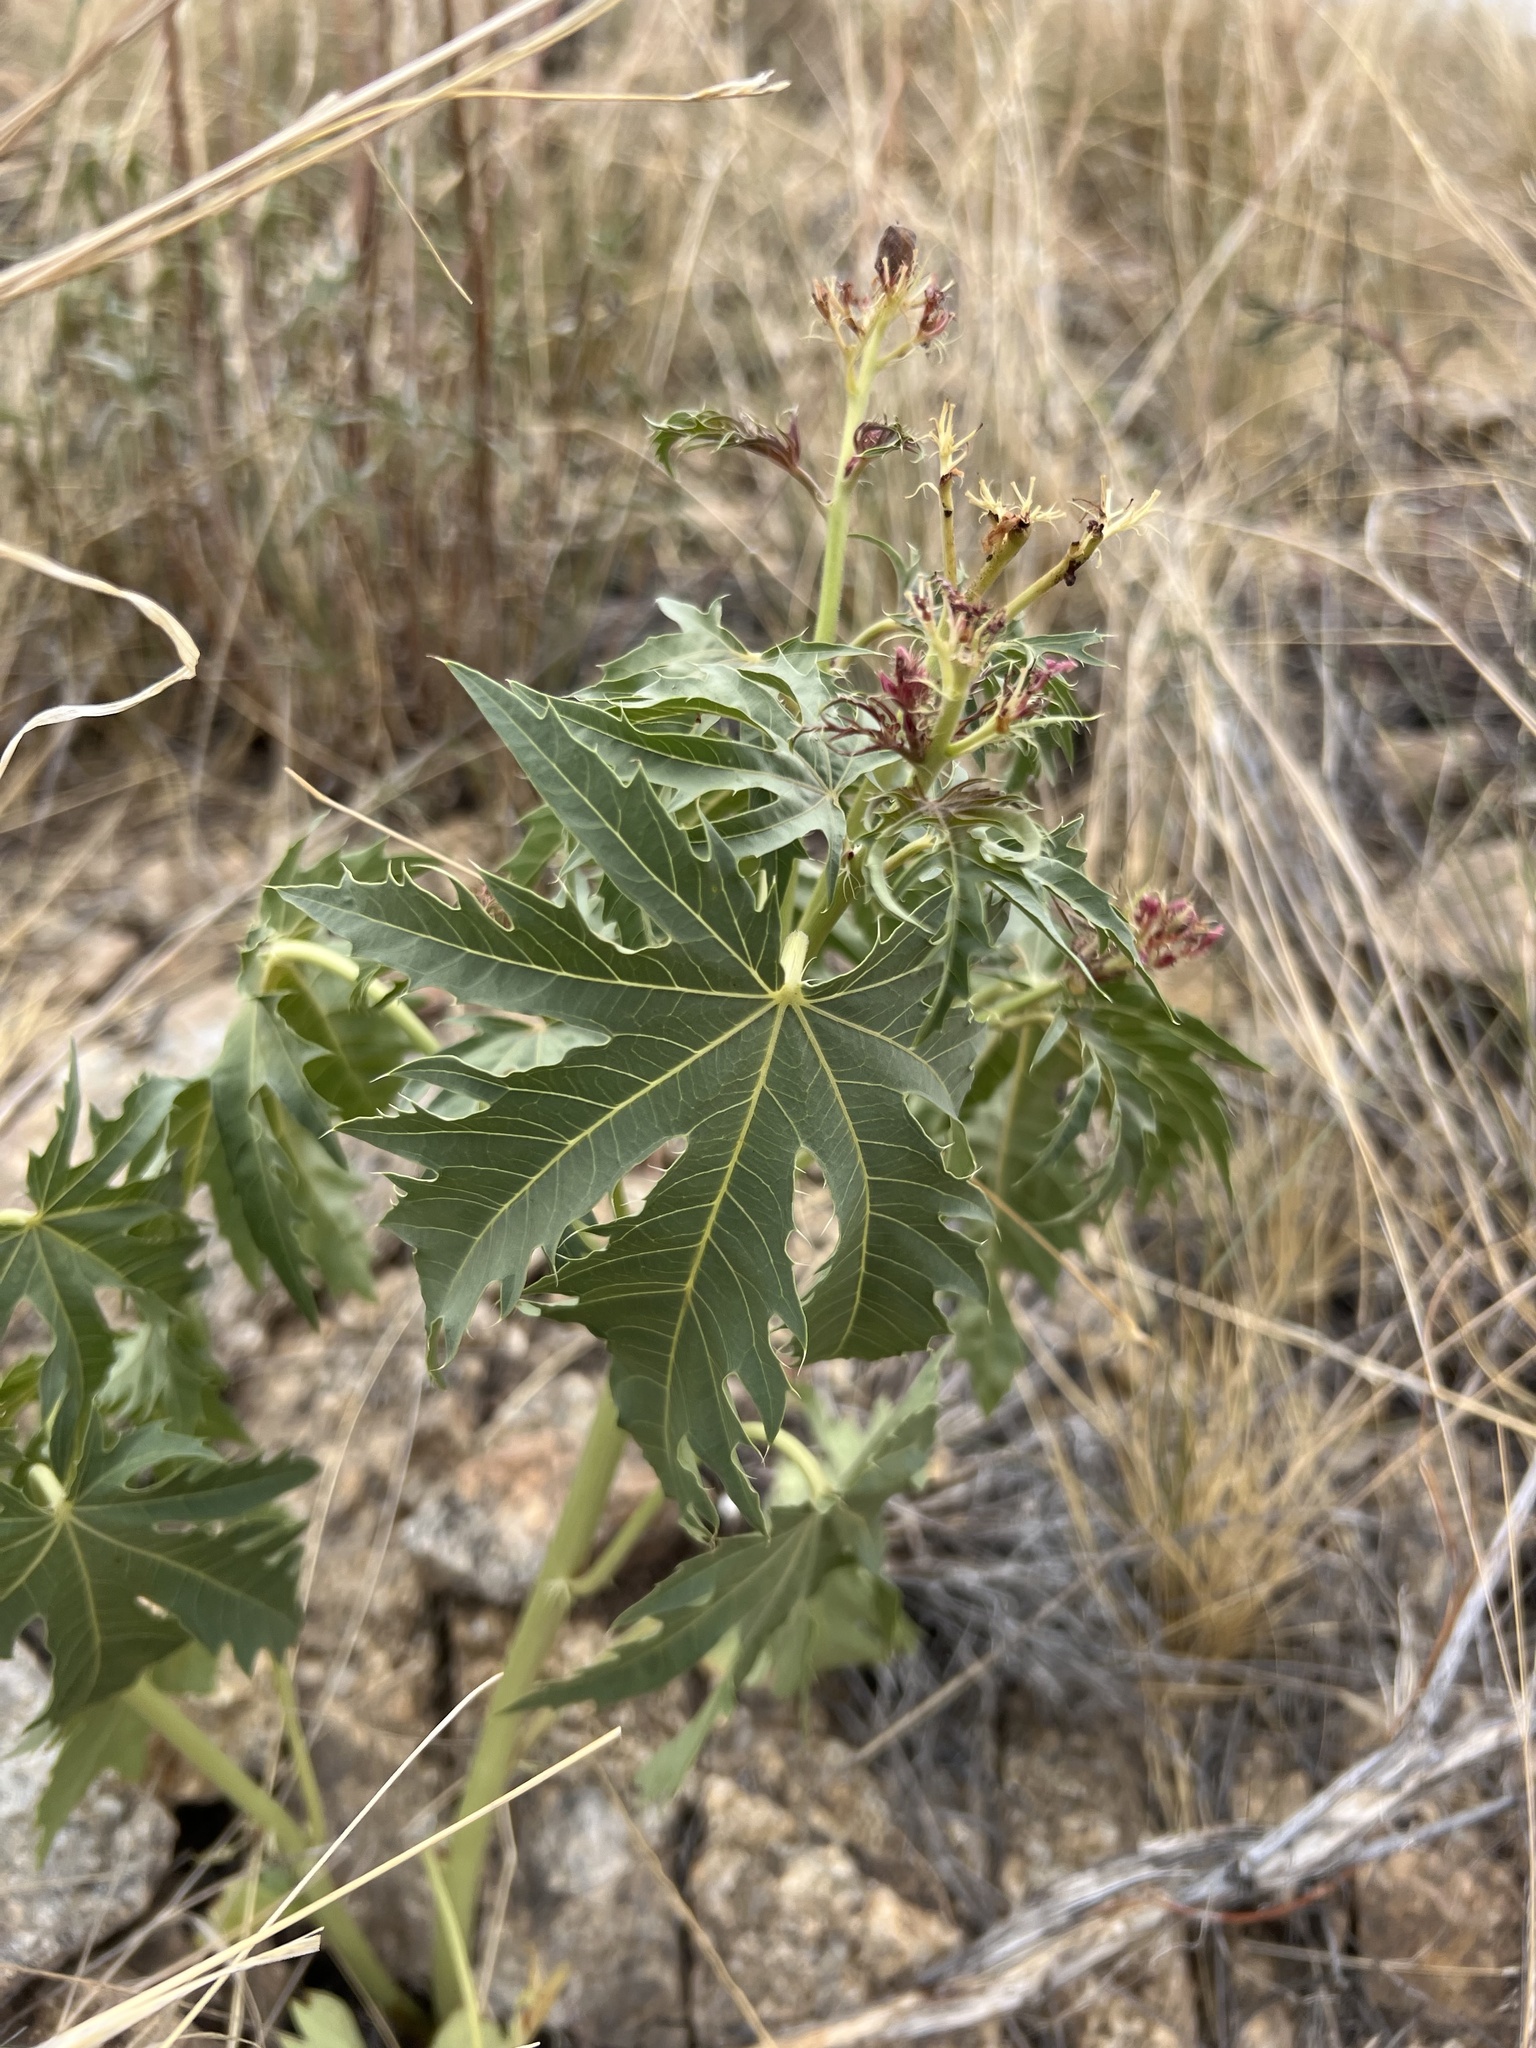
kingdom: Plantae
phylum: Tracheophyta
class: Magnoliopsida
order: Malpighiales
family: Euphorbiaceae
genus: Jatropha
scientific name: Jatropha macrorhiza
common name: Ragged nettlespurge
